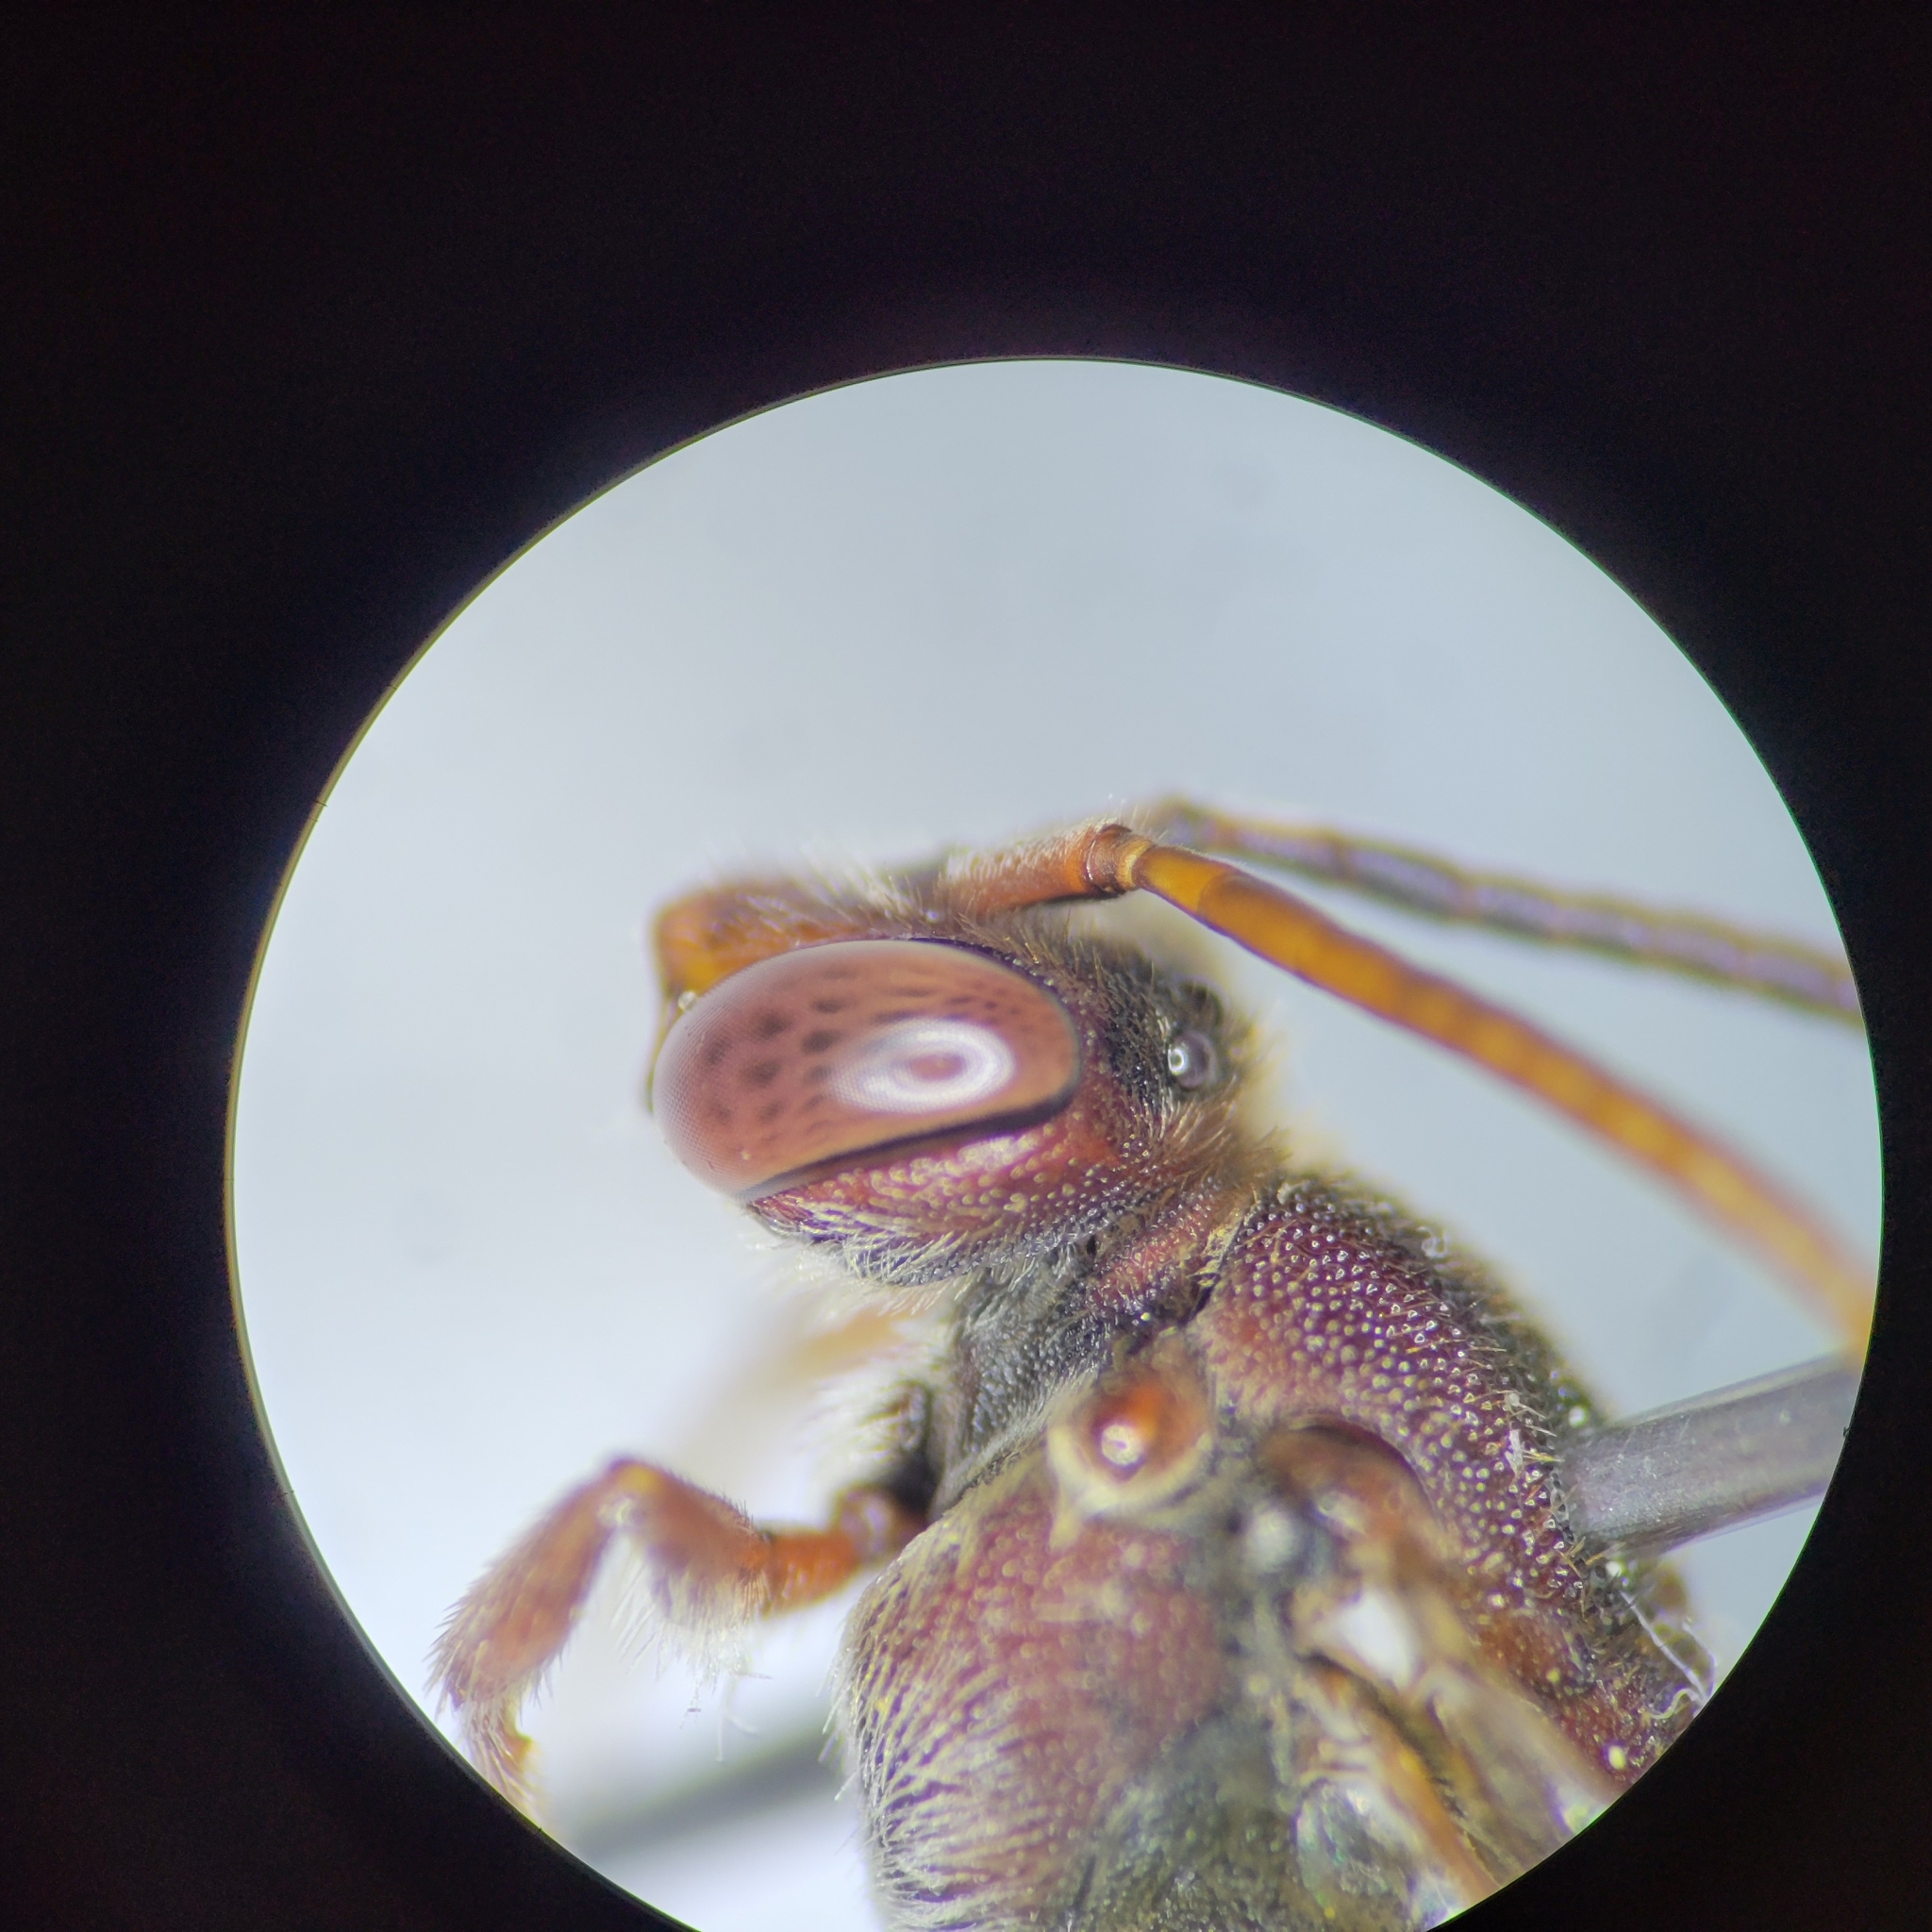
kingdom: Animalia
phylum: Arthropoda
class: Insecta
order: Hymenoptera
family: Apidae
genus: Nomada
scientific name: Nomada articulata
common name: Articulated nomad
